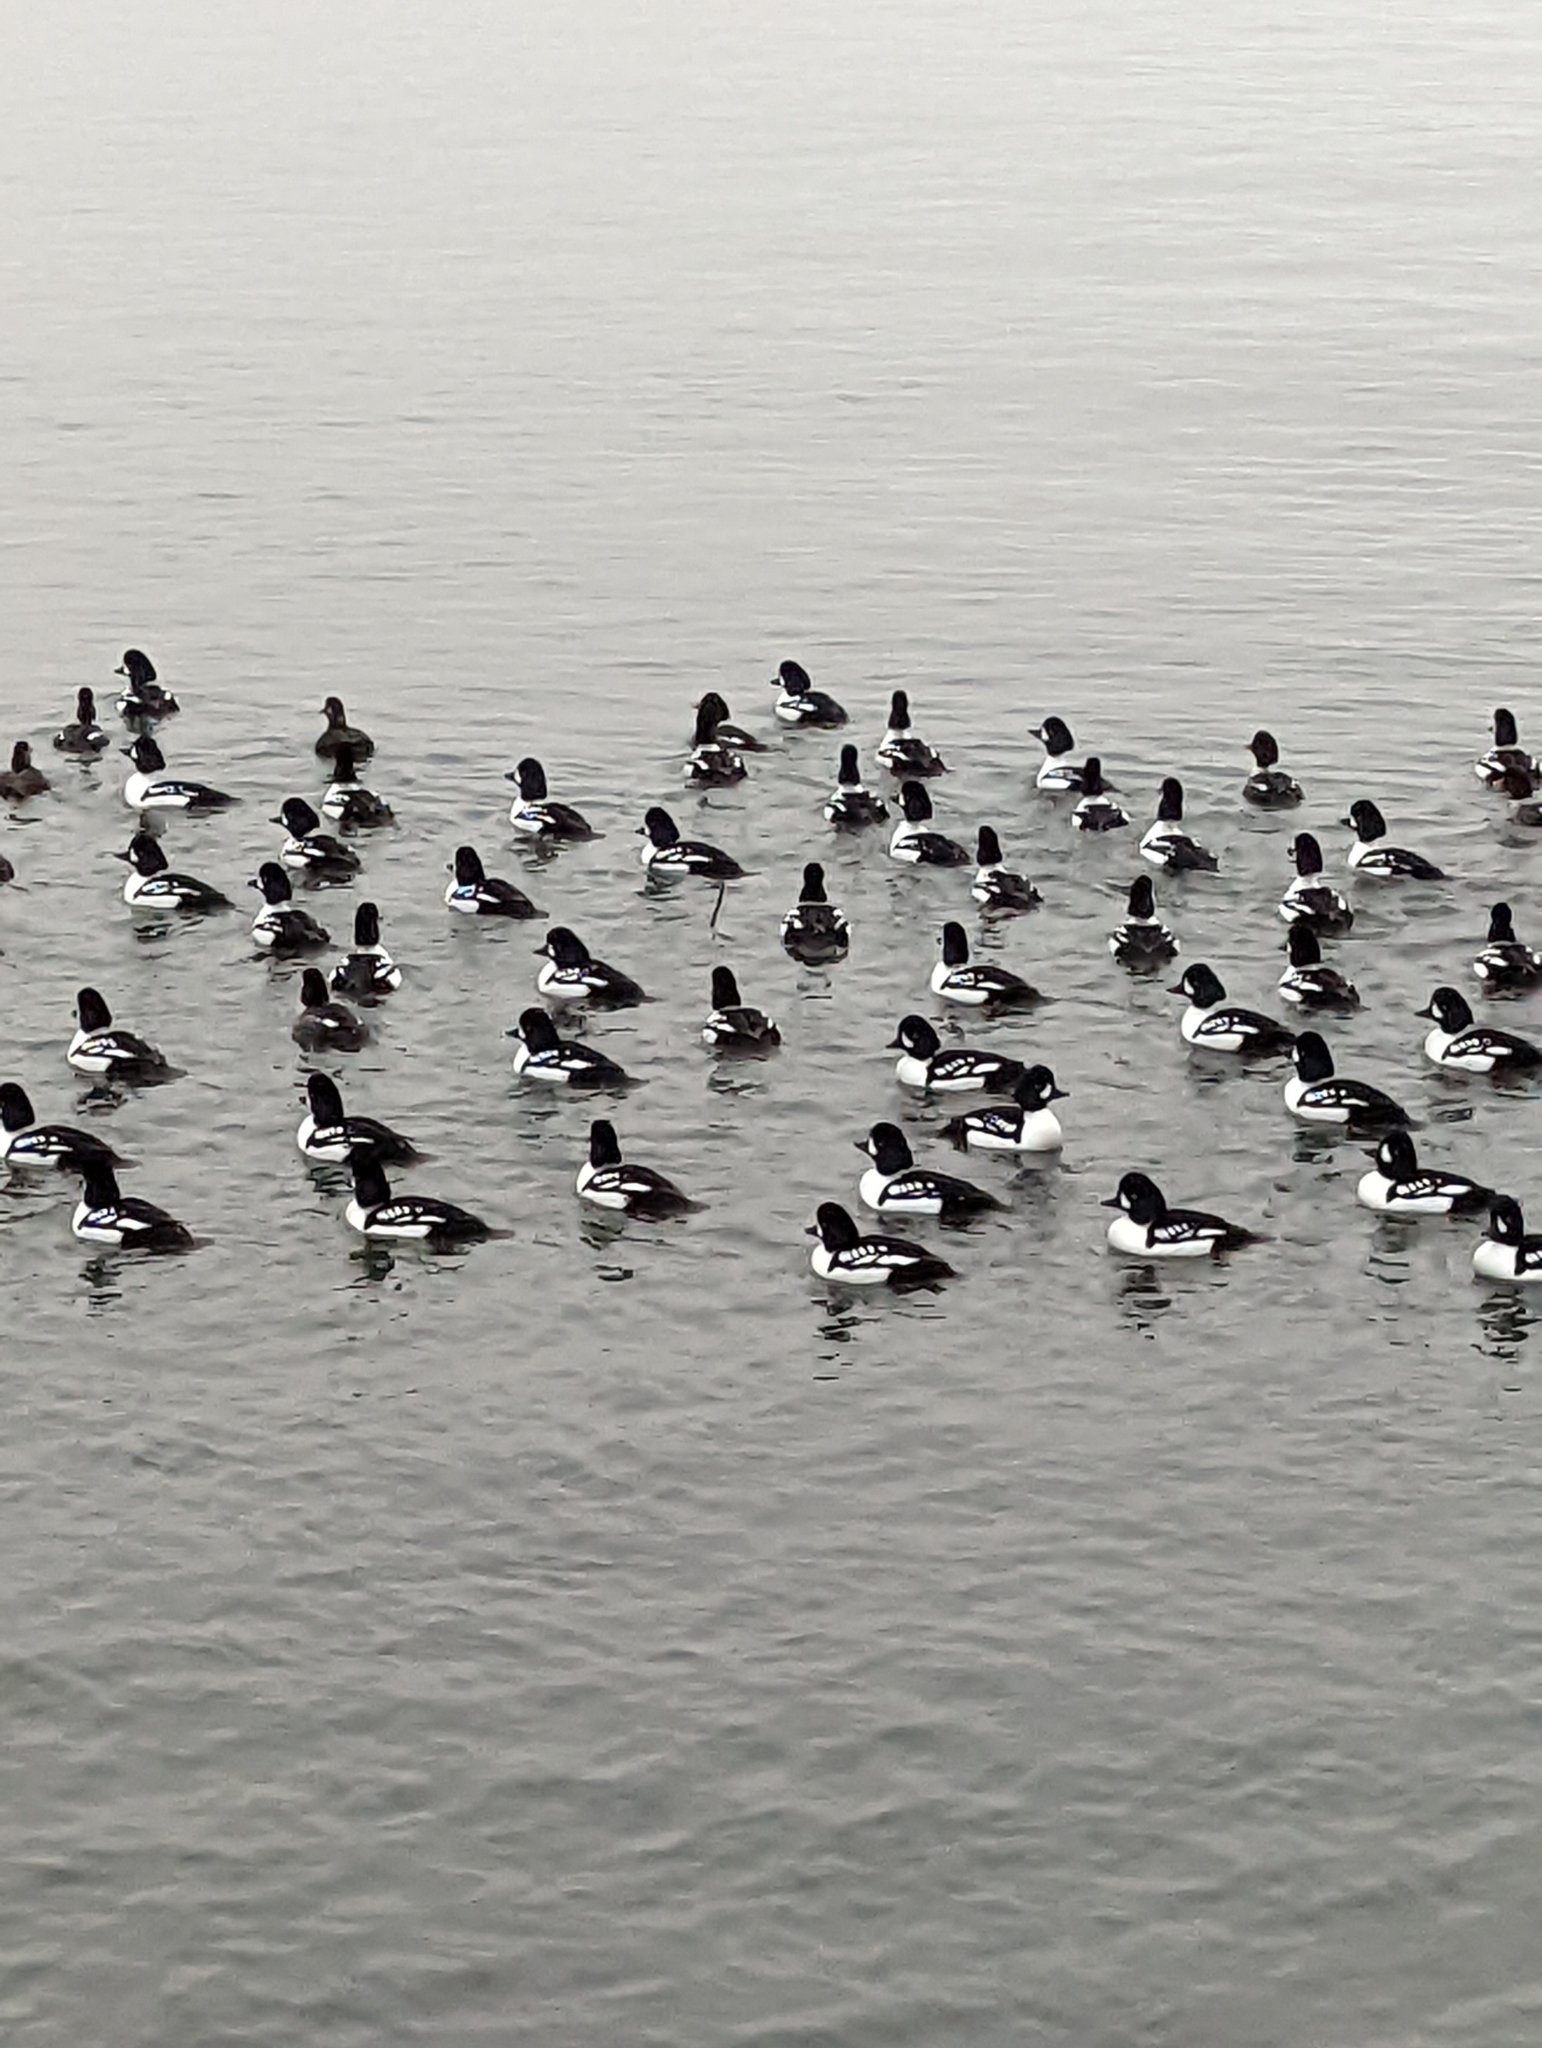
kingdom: Animalia
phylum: Chordata
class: Aves
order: Anseriformes
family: Anatidae
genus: Bucephala
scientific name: Bucephala islandica
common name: Barrow's goldeneye
